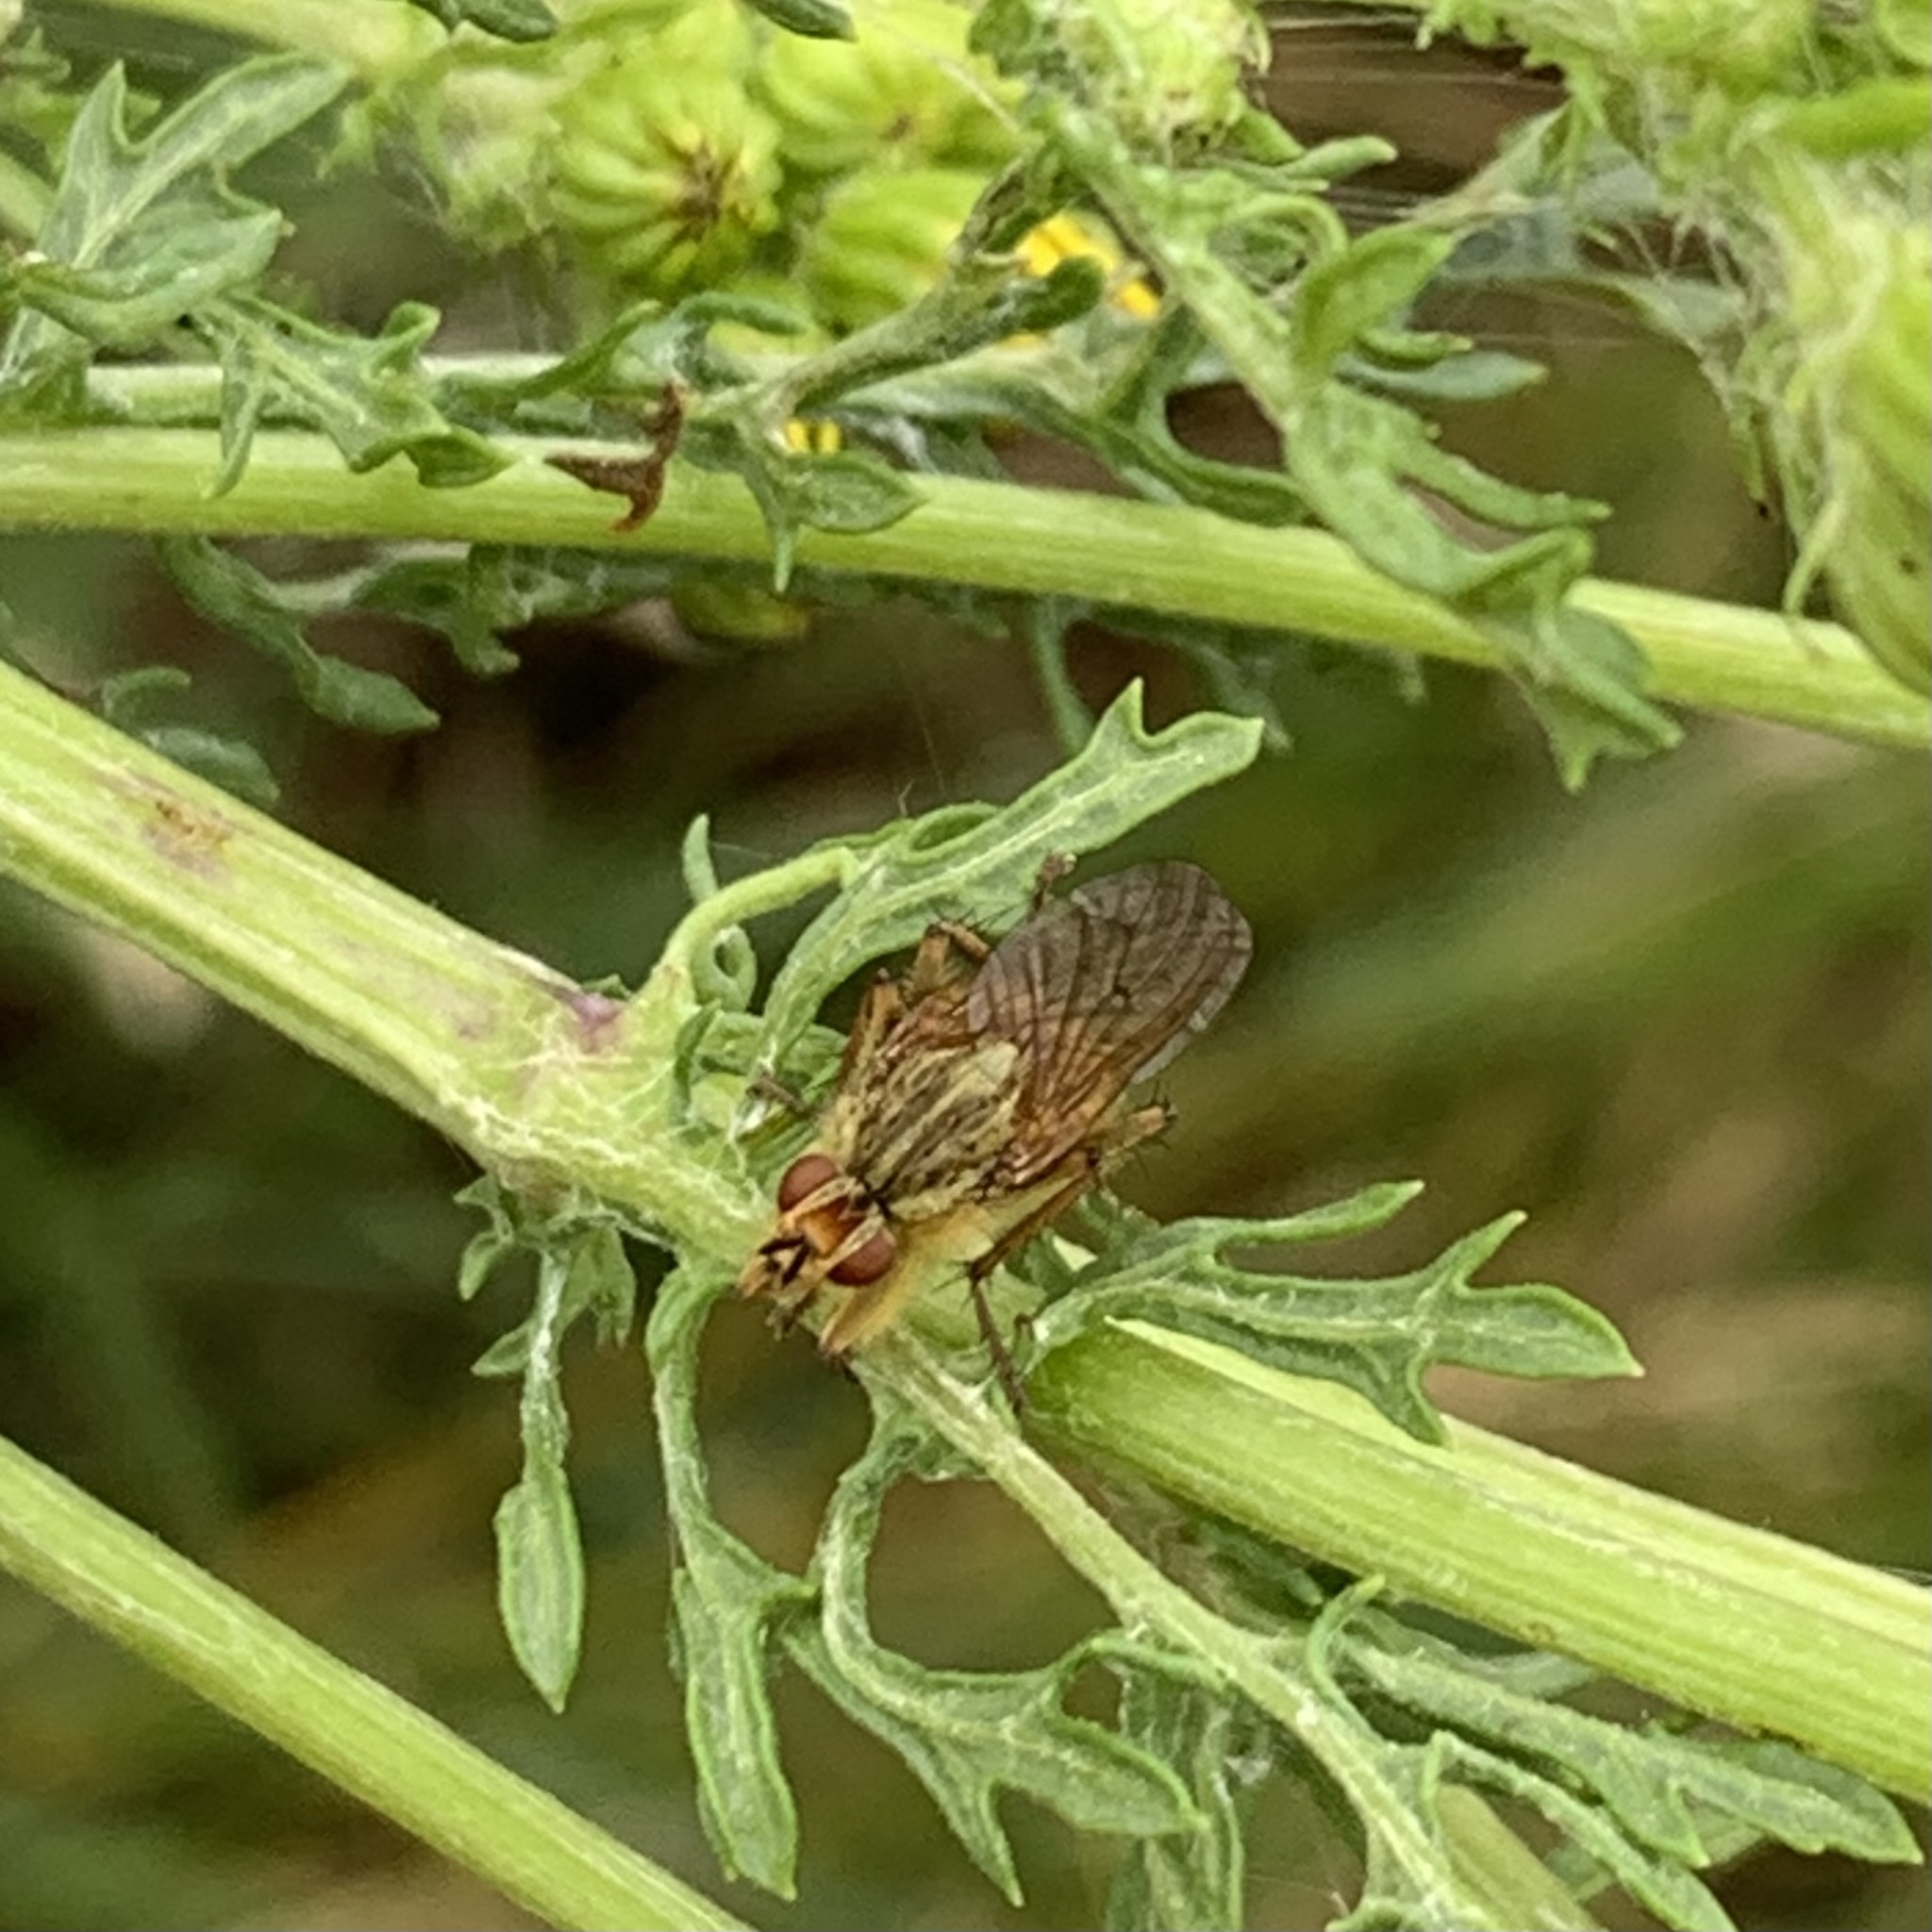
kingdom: Animalia
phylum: Arthropoda
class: Insecta
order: Diptera
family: Scathophagidae
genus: Scathophaga
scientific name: Scathophaga stercoraria
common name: Yellow dung fly
